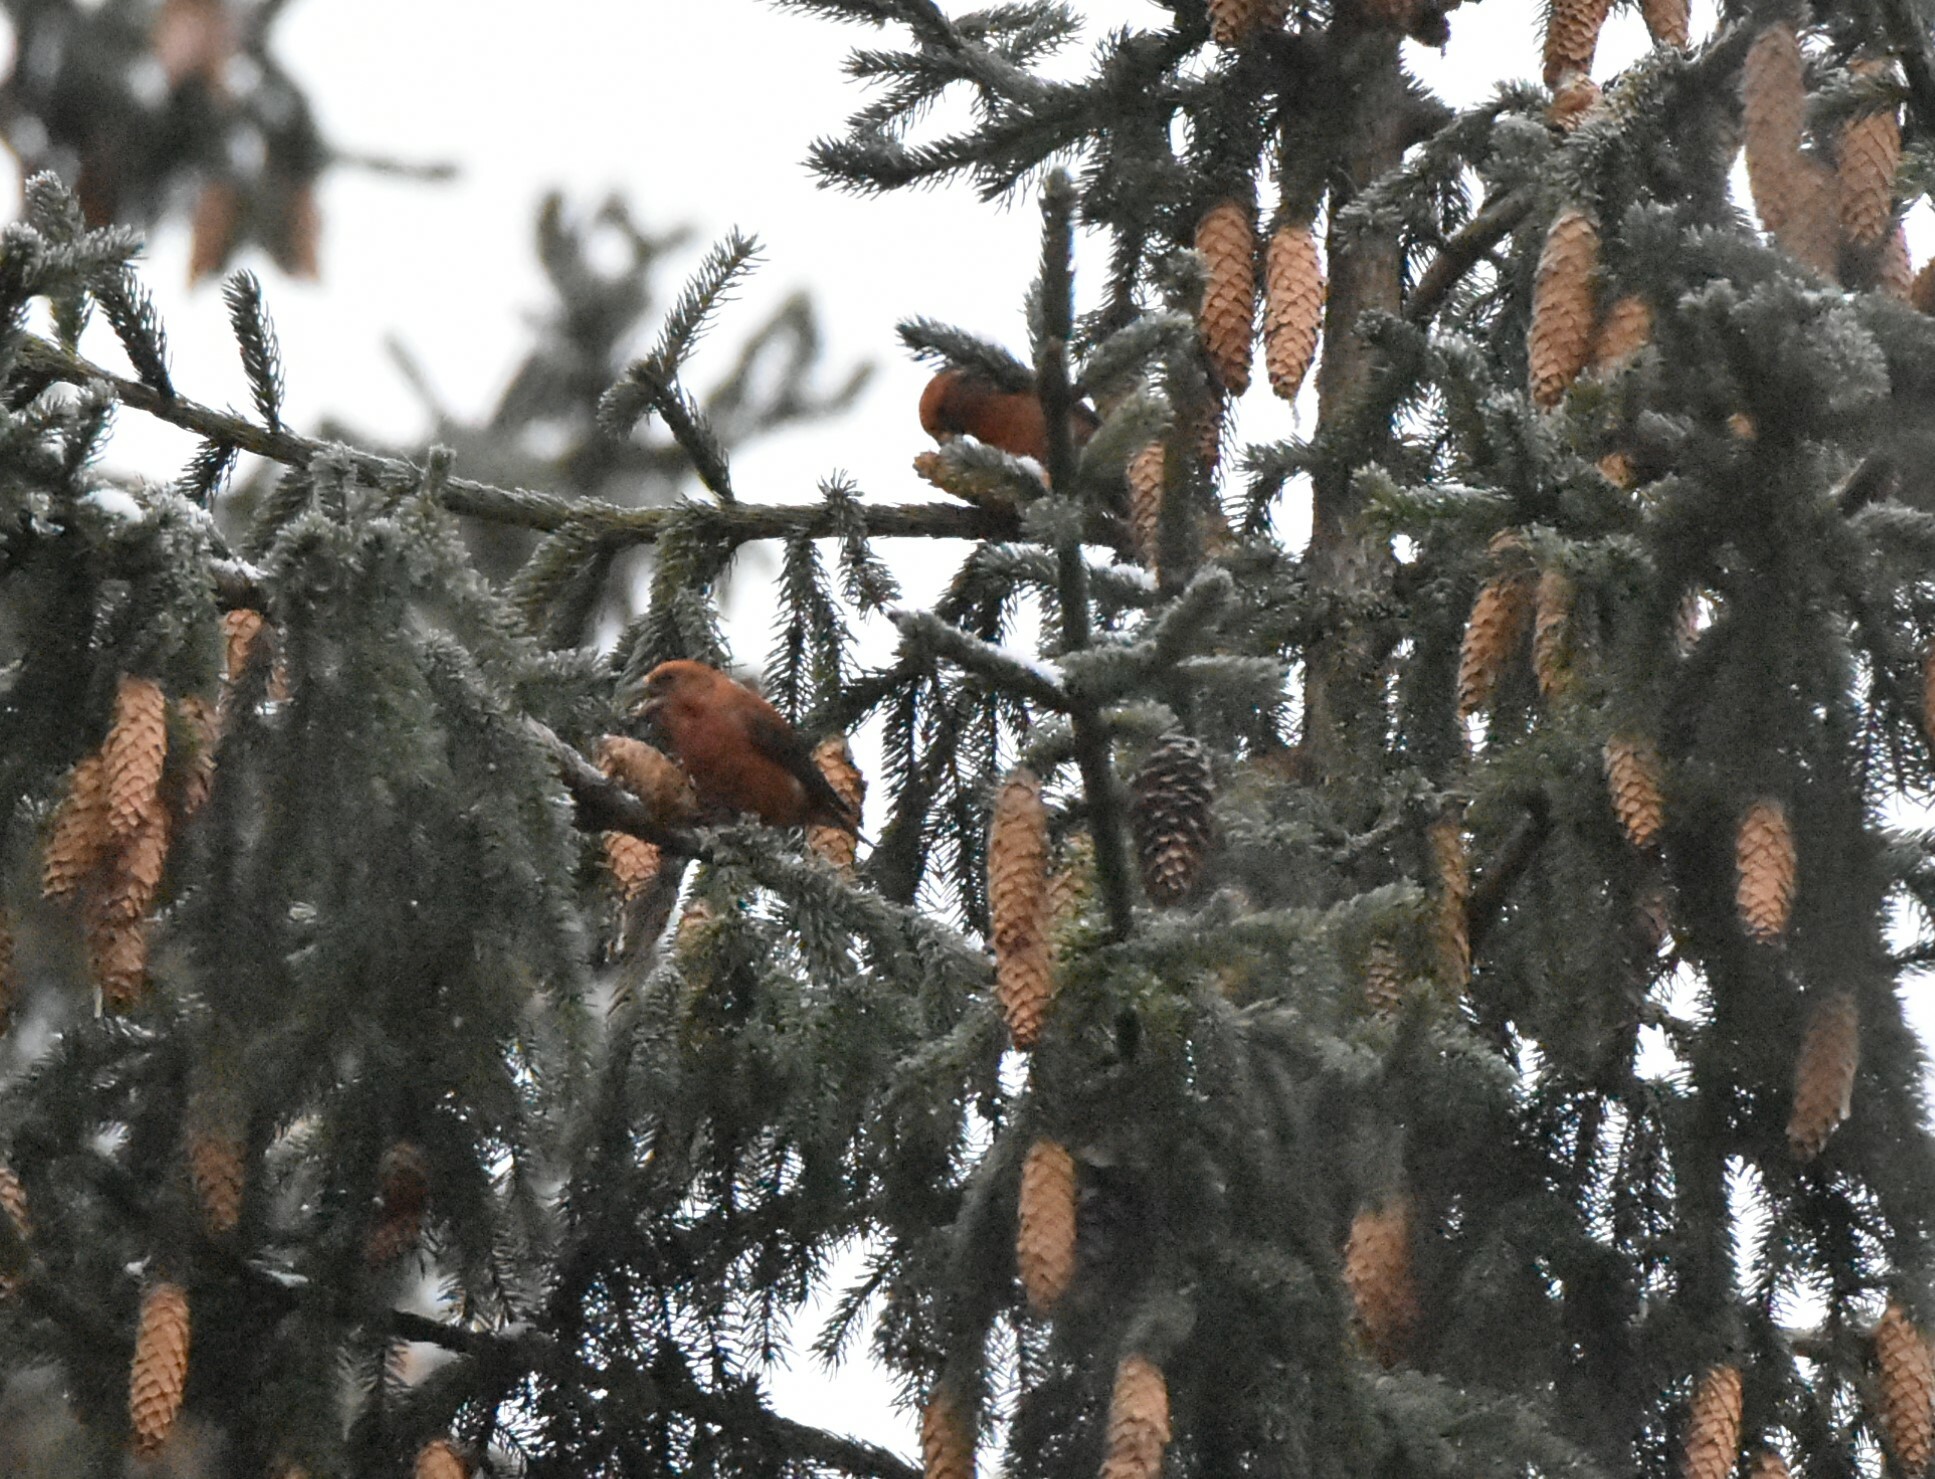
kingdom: Animalia
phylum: Chordata
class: Aves
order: Passeriformes
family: Fringillidae
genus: Loxia
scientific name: Loxia curvirostra
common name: Red crossbill
